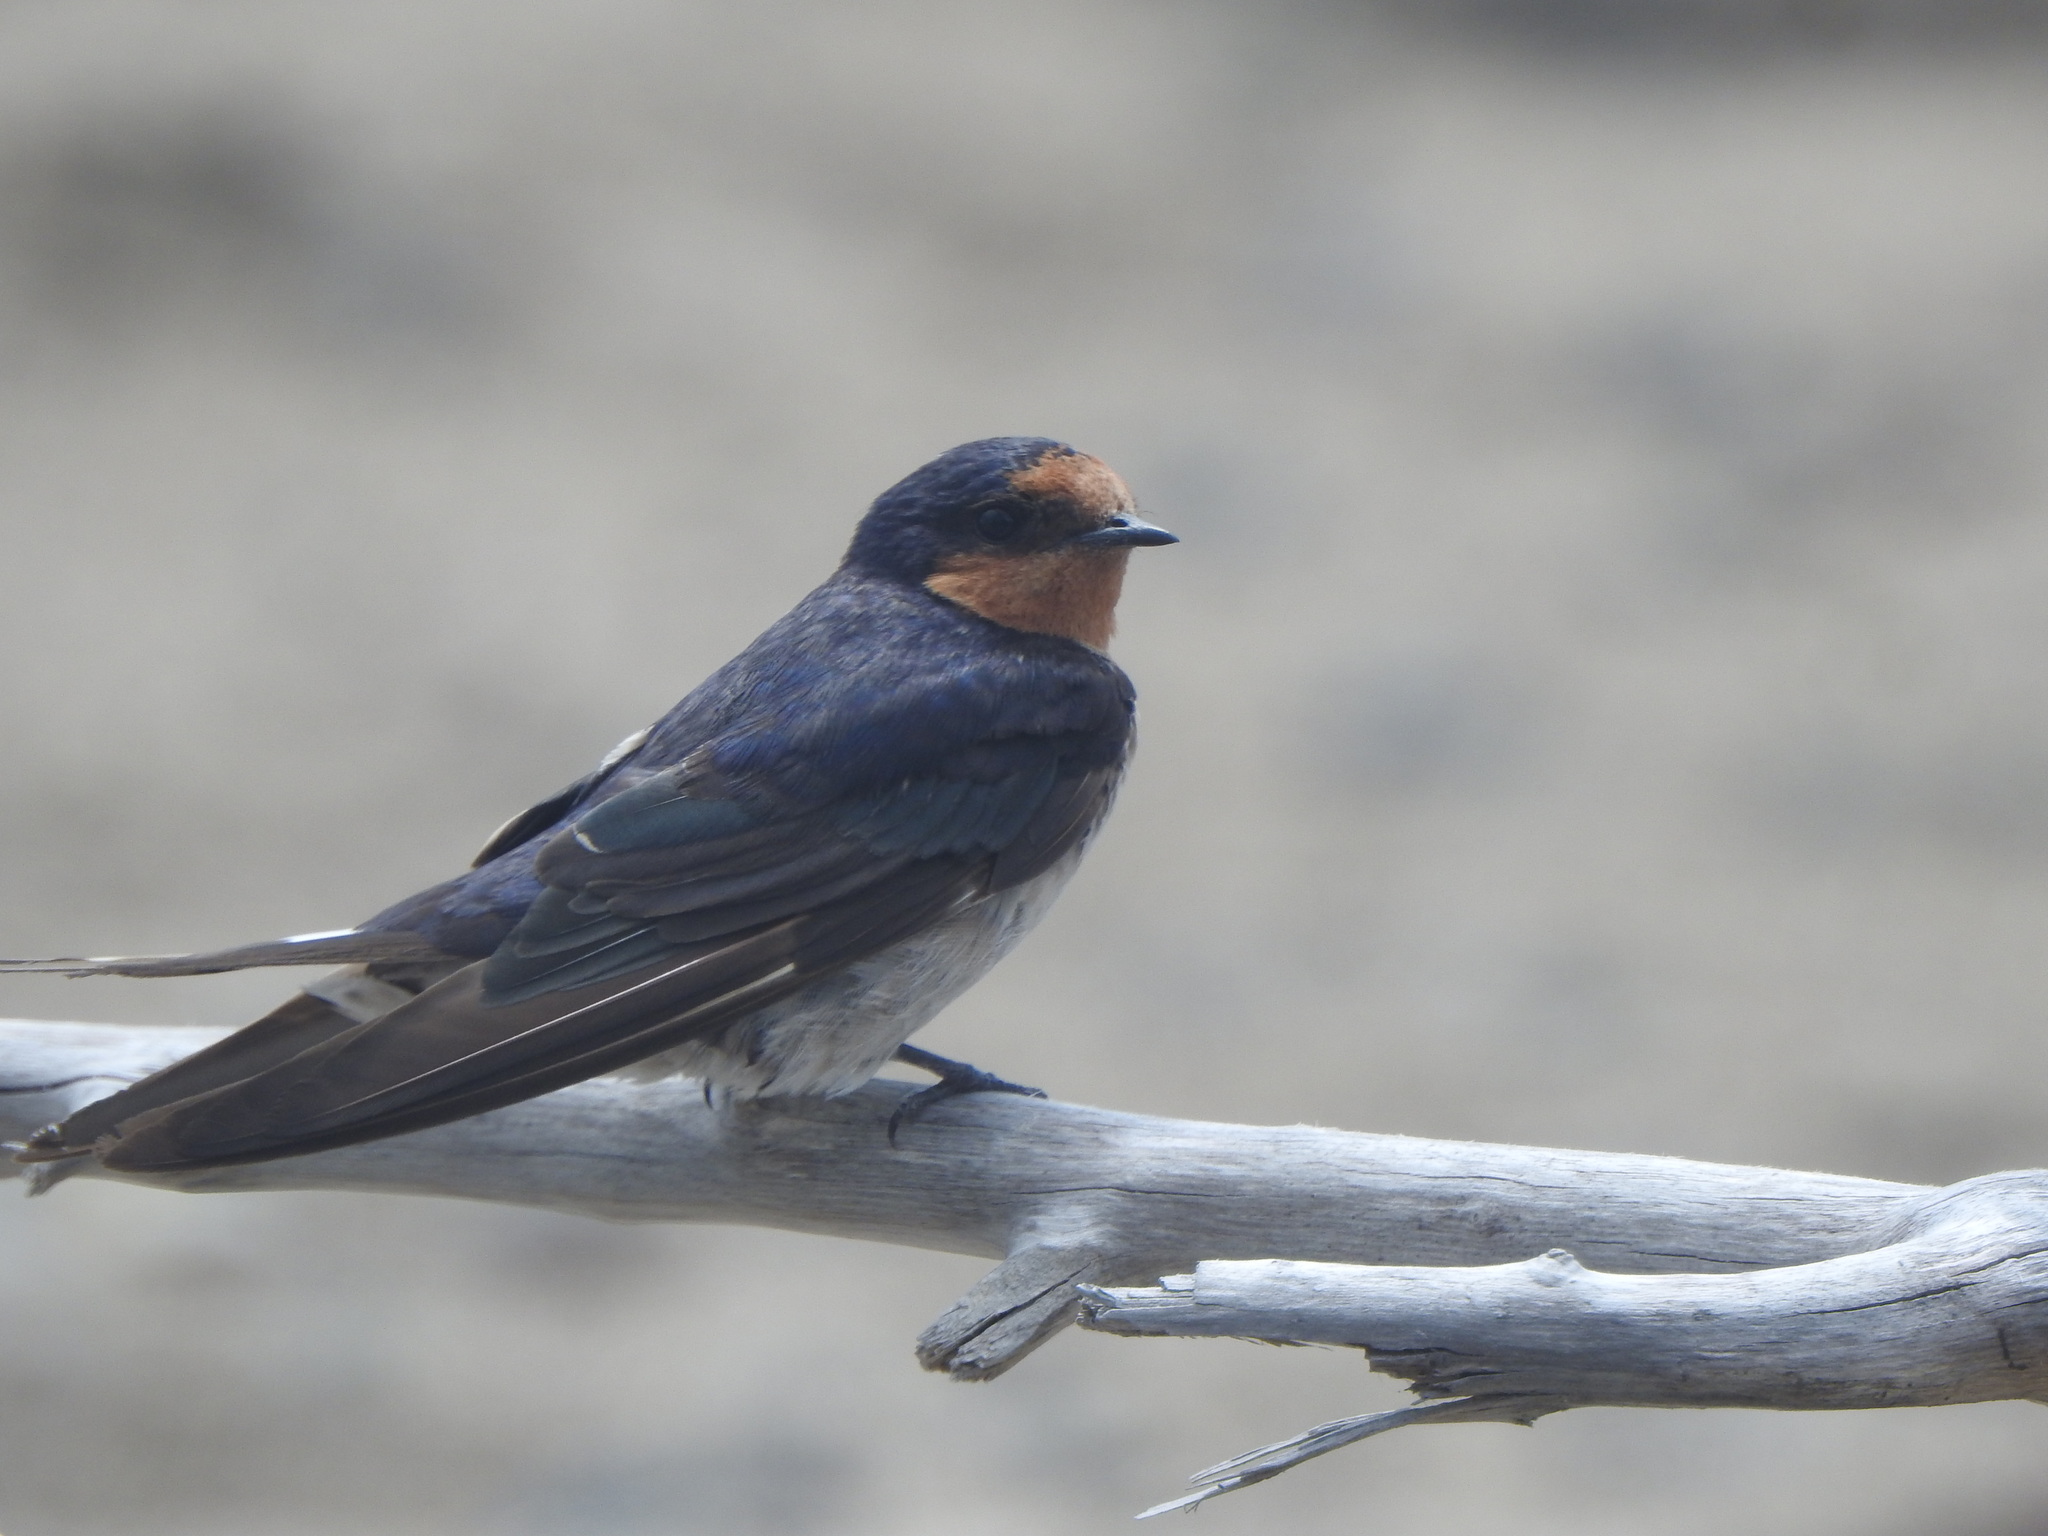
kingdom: Animalia
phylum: Chordata
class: Aves
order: Passeriformes
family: Hirundinidae
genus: Hirundo
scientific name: Hirundo neoxena
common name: Welcome swallow
